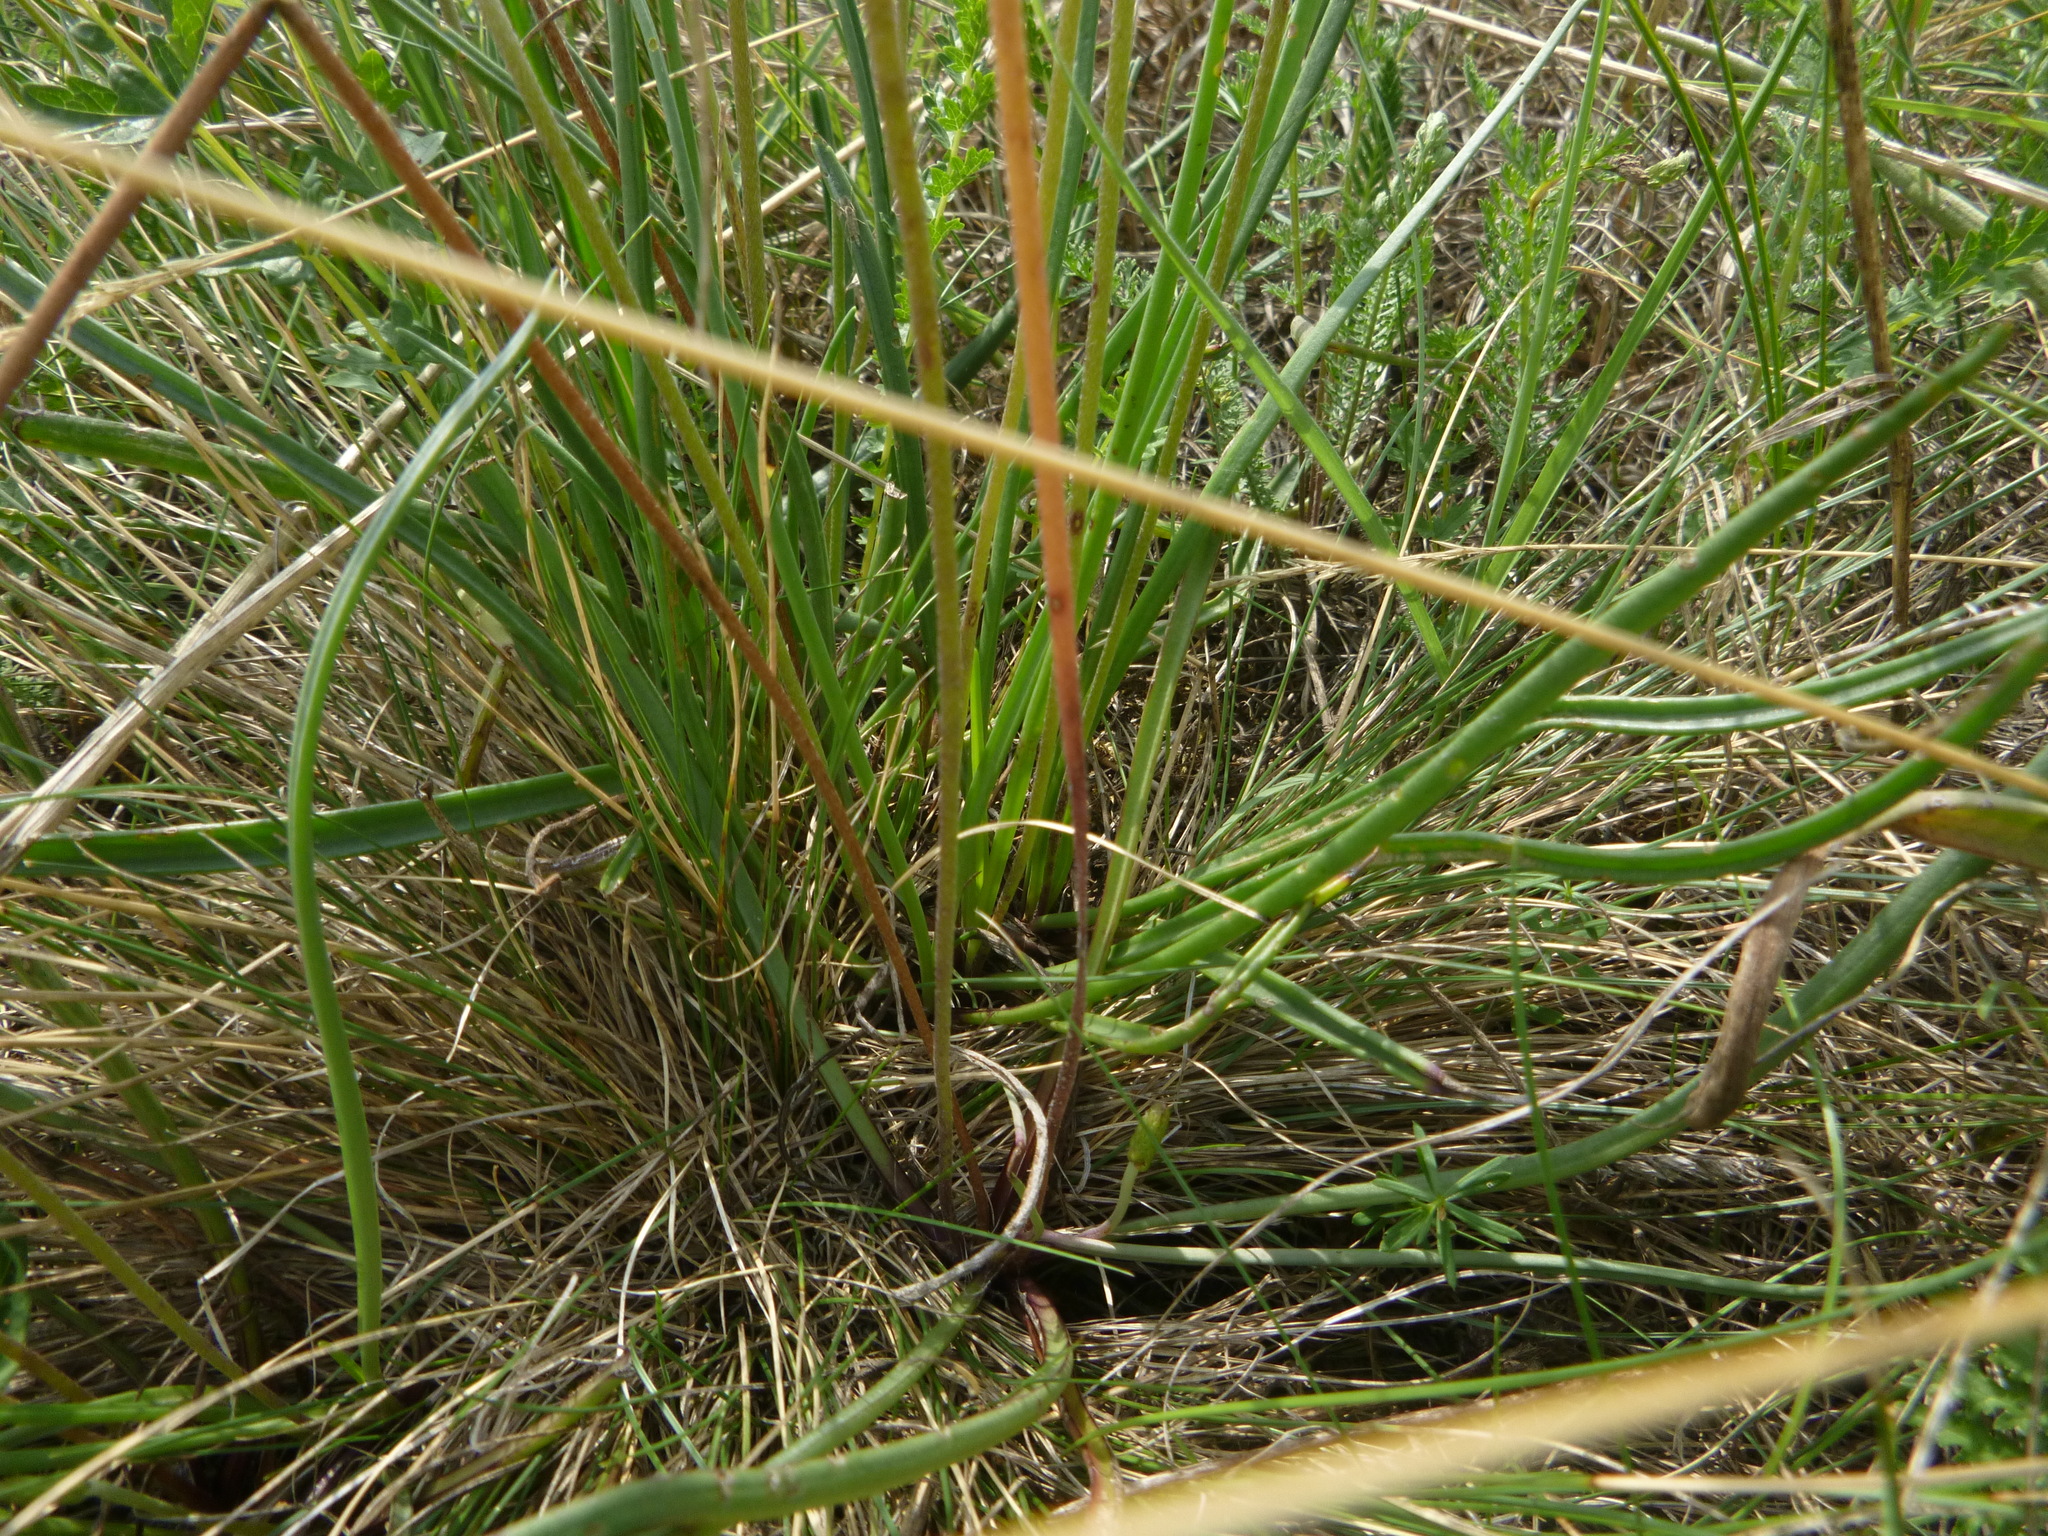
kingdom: Plantae
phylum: Tracheophyta
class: Magnoliopsida
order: Lamiales
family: Plantaginaceae
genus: Plantago
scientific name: Plantago maritima
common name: Sea plantain
